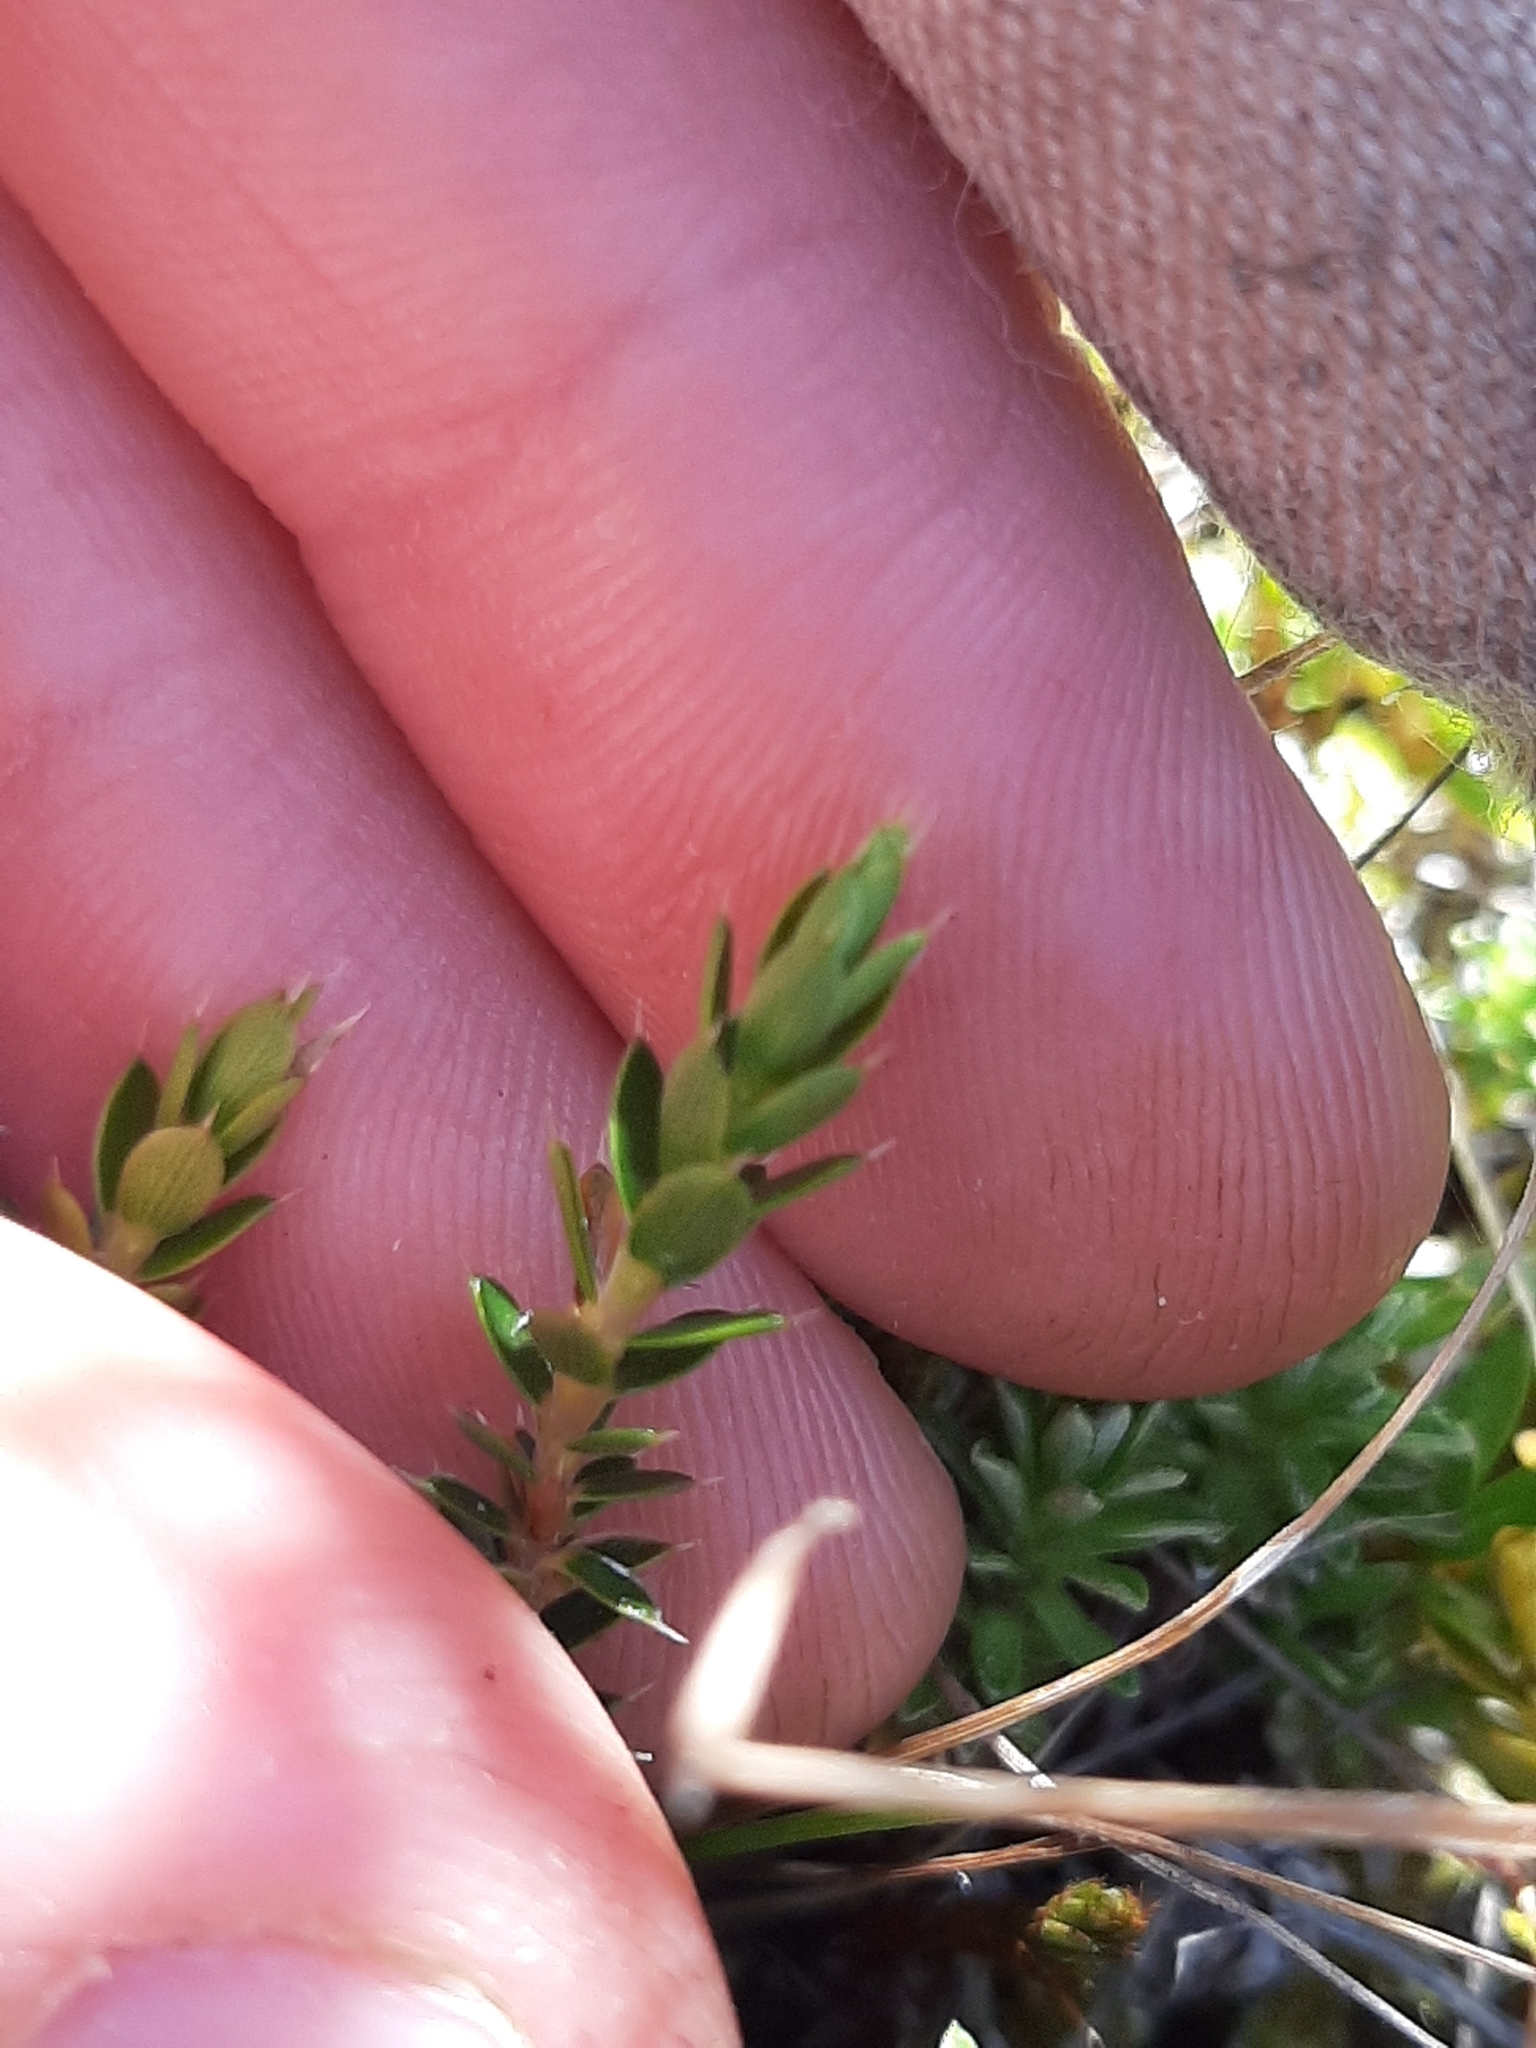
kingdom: Plantae
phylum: Tracheophyta
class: Magnoliopsida
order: Ericales
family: Ericaceae
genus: Styphelia
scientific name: Styphelia nesophila
